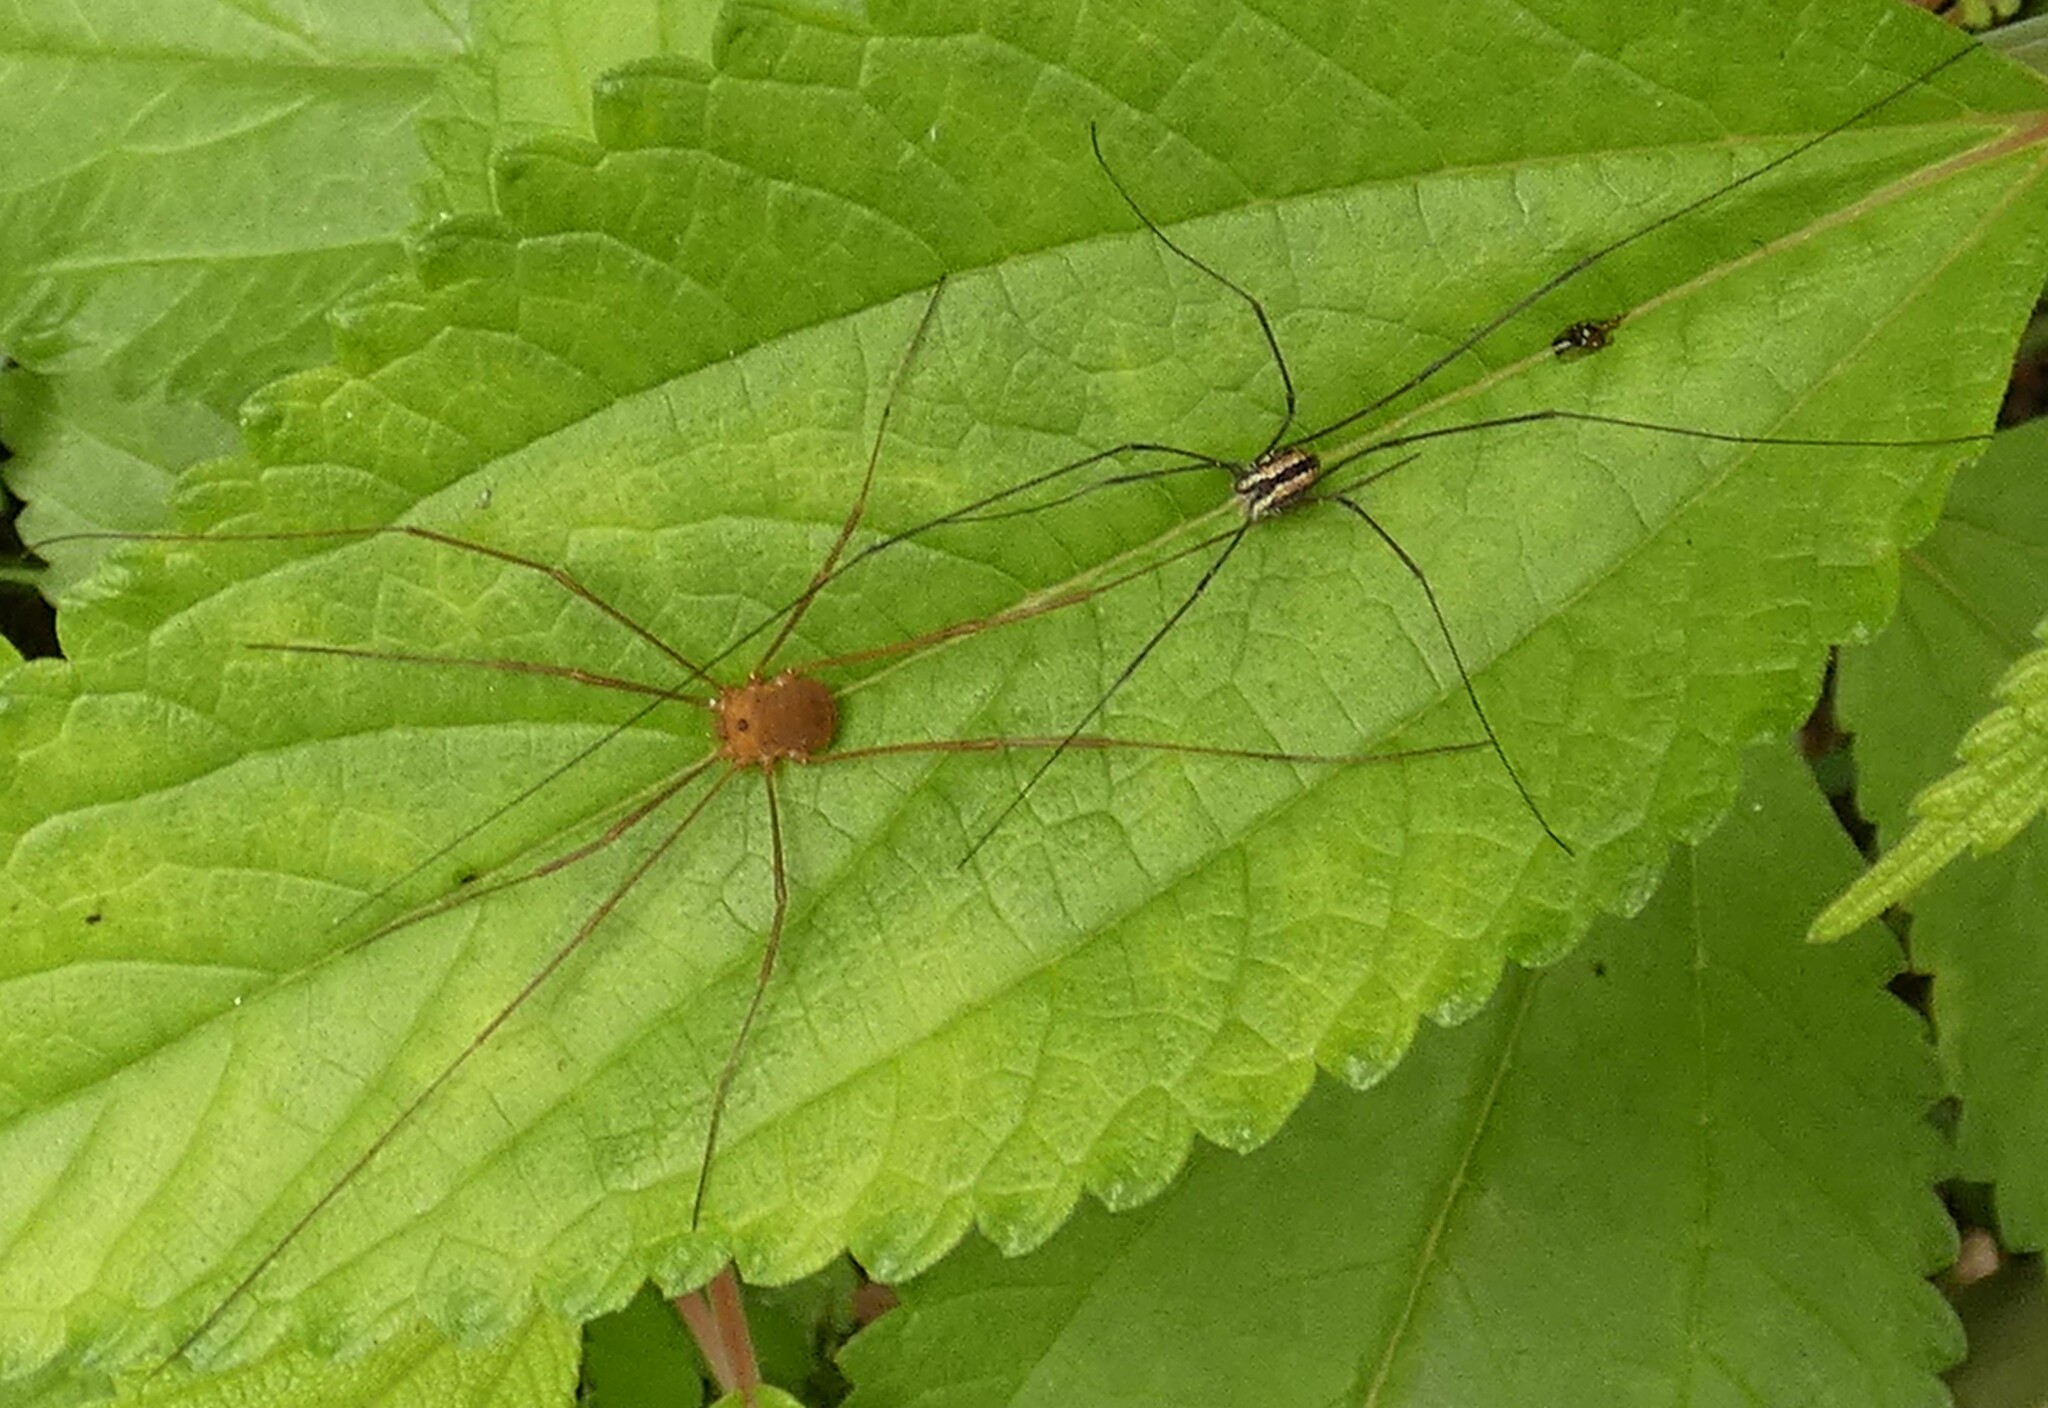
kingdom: Animalia
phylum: Arthropoda
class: Arachnida
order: Opiliones
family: Sclerosomatidae
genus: Hadrobunus
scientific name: Hadrobunus grandis
